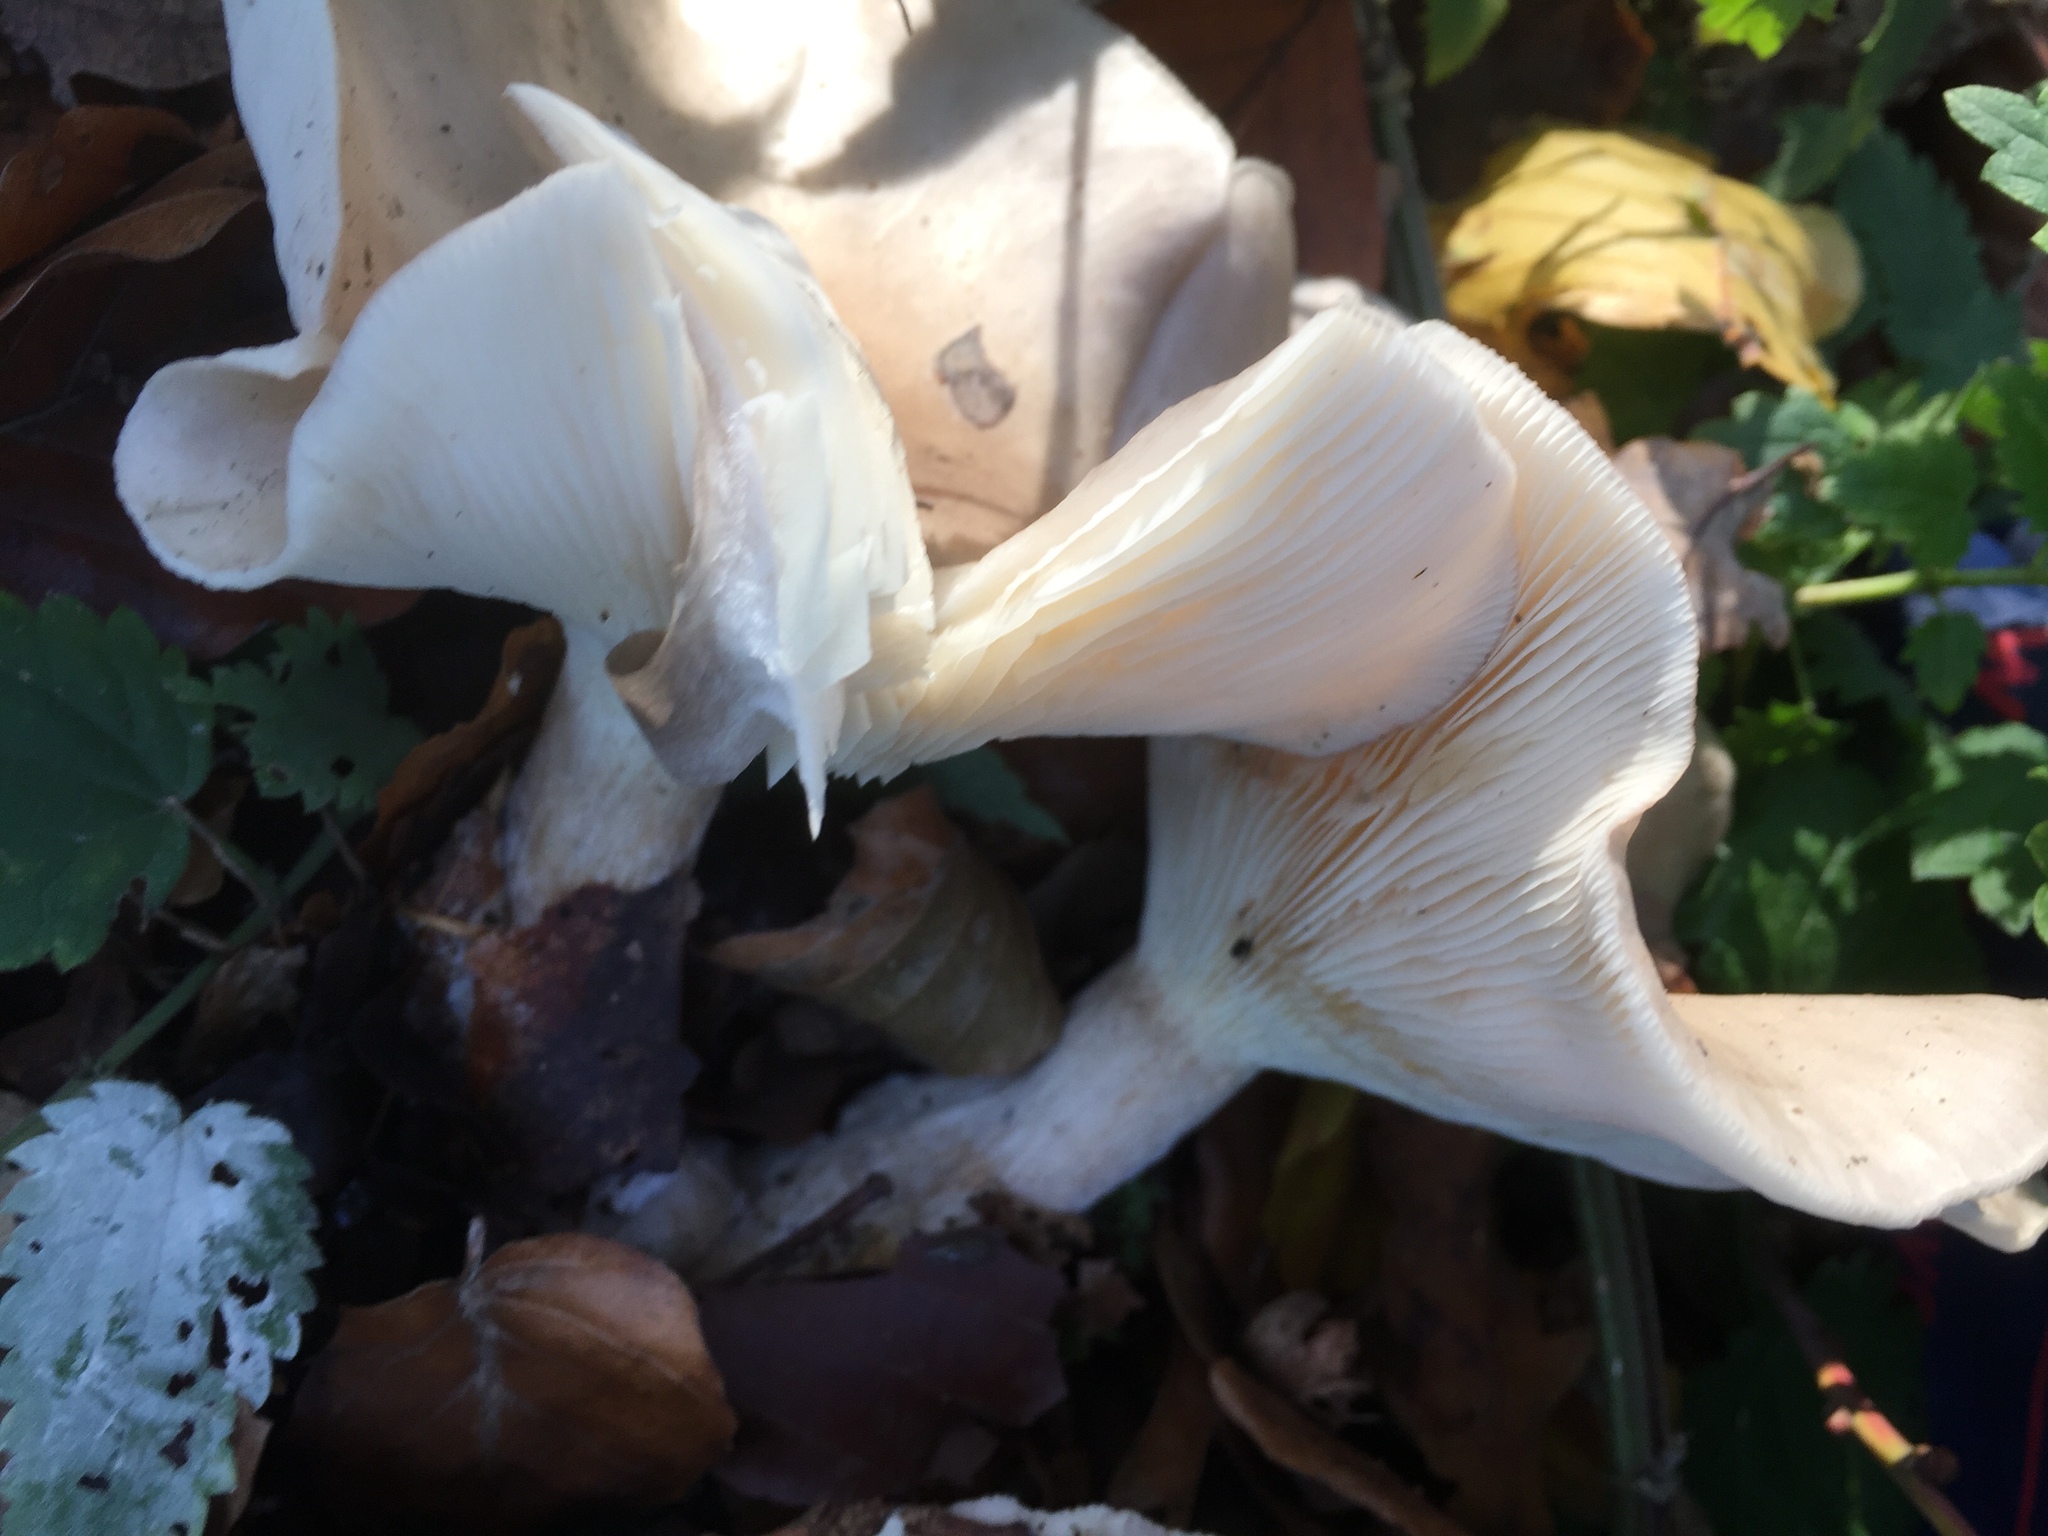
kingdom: Fungi
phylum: Basidiomycota
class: Agaricomycetes
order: Agaricales
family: Tricholomataceae
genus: Clitocybe
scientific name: Clitocybe nebularis
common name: Clouded agaric
